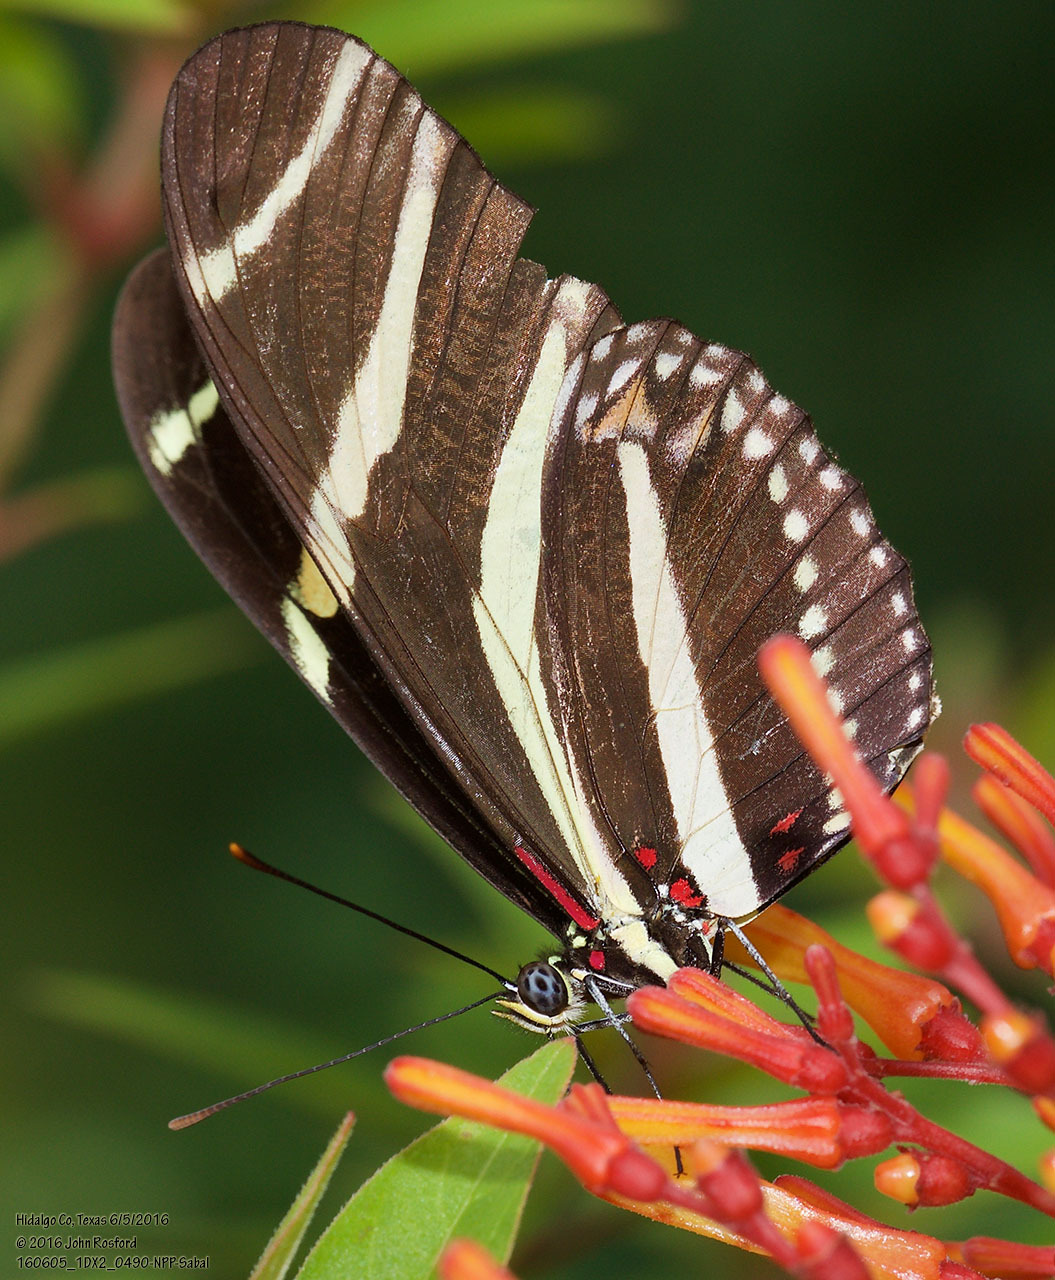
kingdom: Animalia
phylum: Arthropoda
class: Insecta
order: Lepidoptera
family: Nymphalidae
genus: Heliconius
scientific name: Heliconius charithonia
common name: Zebra long wing
